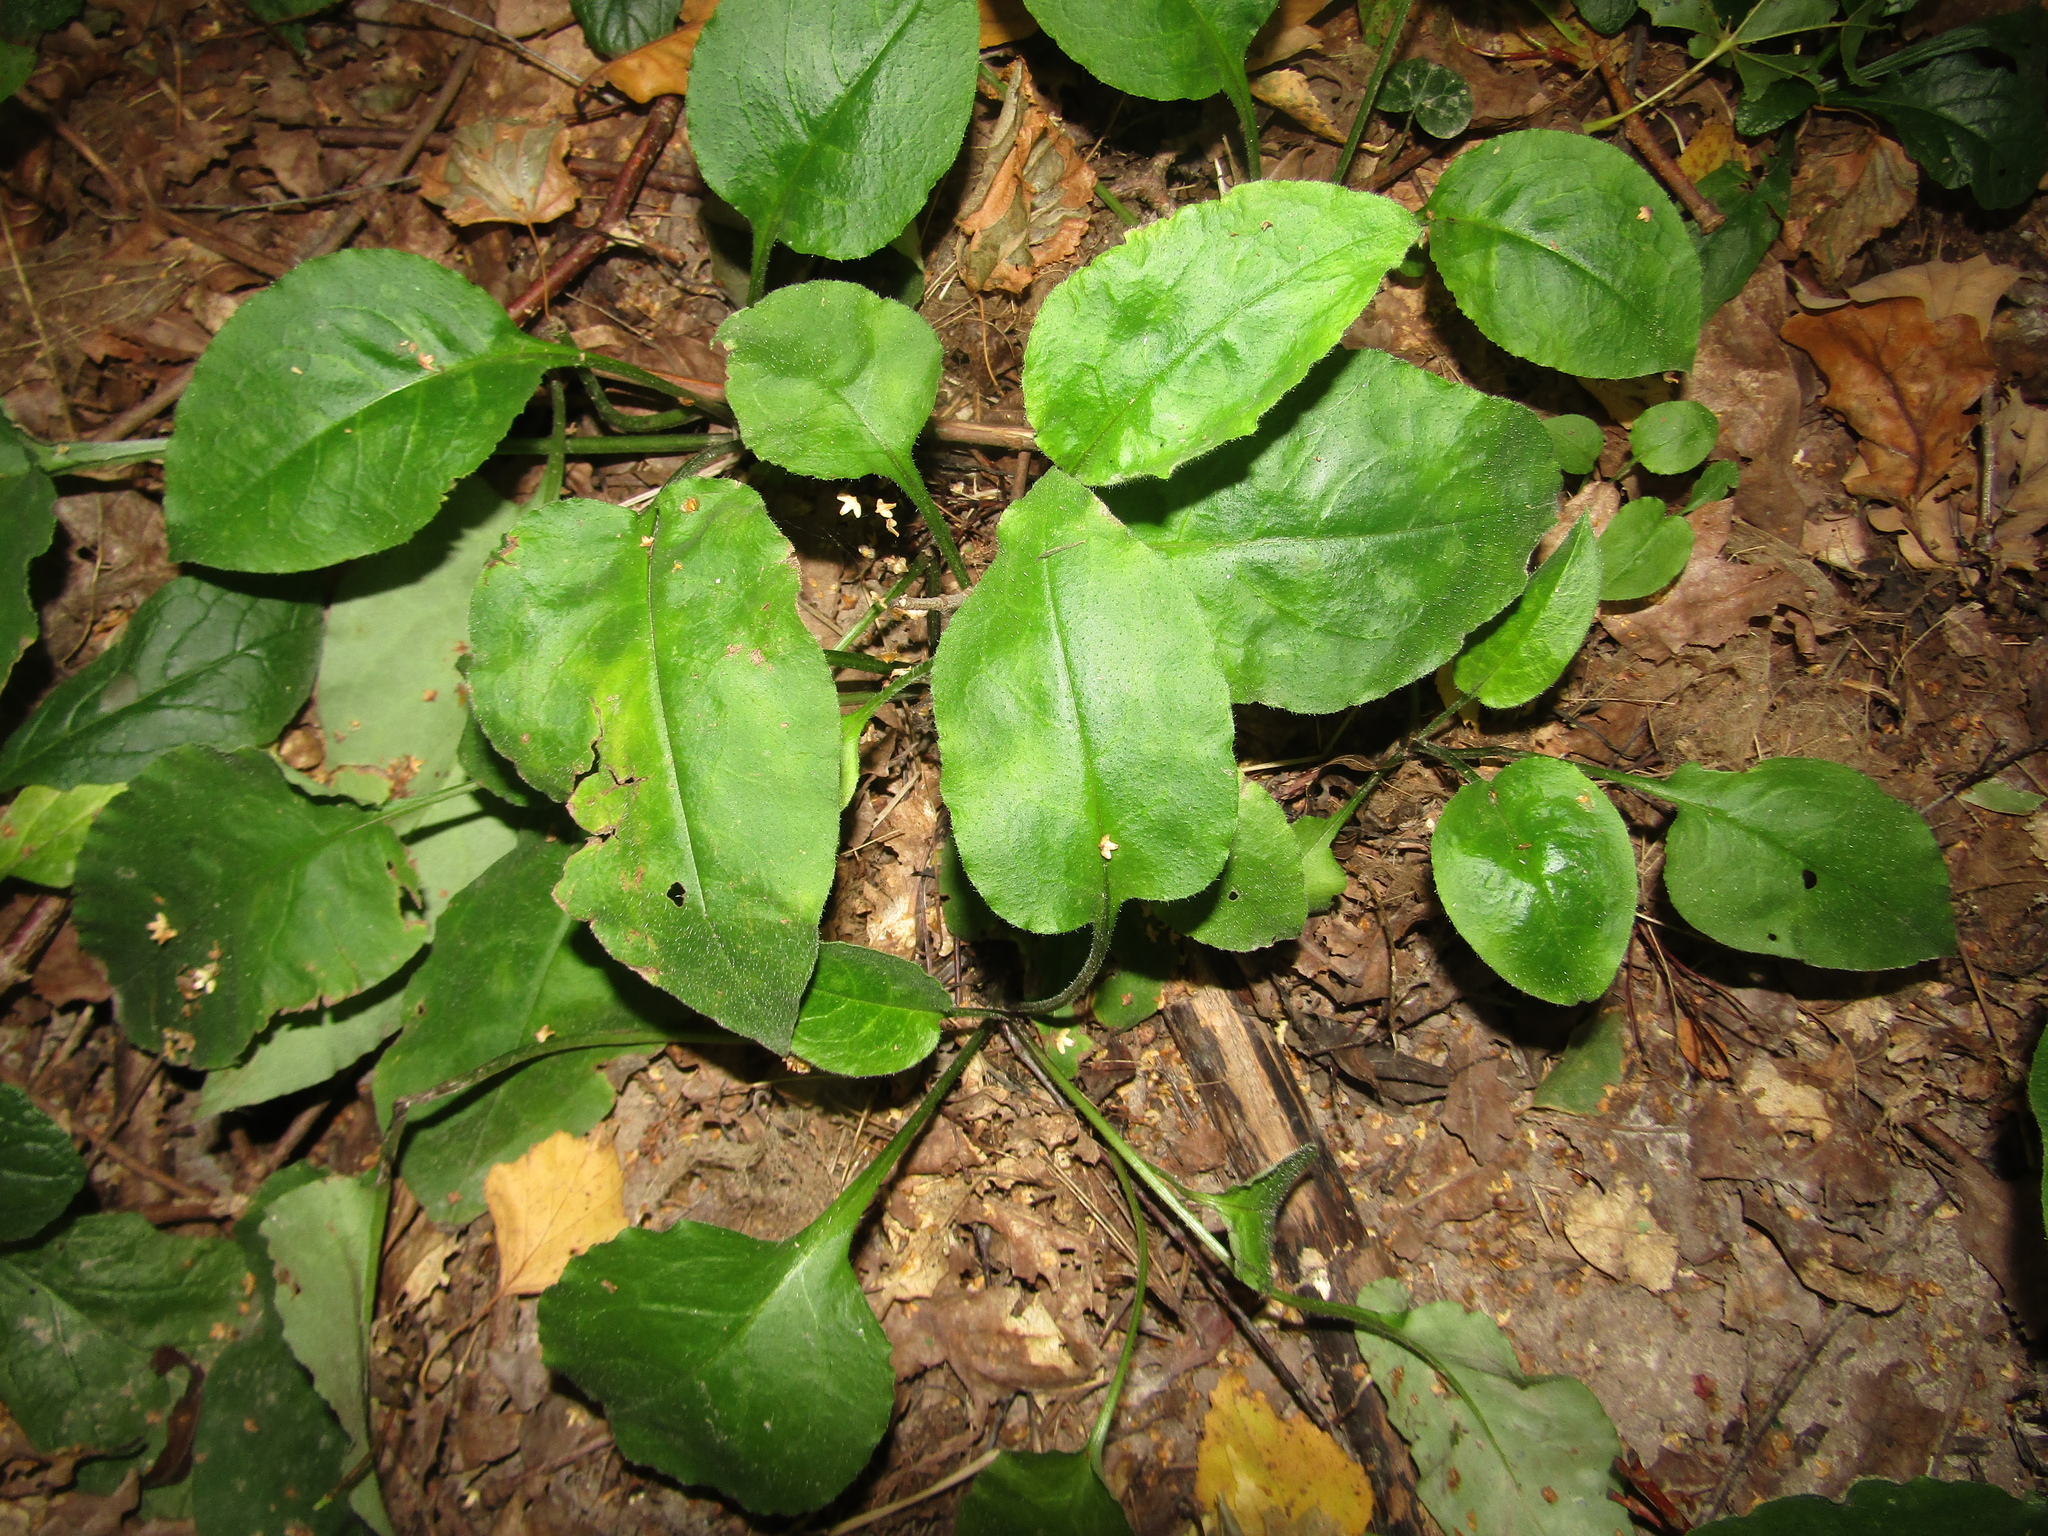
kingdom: Plantae
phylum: Tracheophyta
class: Magnoliopsida
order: Boraginales
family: Boraginaceae
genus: Pulmonaria
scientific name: Pulmonaria obscura
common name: Suffolk lungwort
